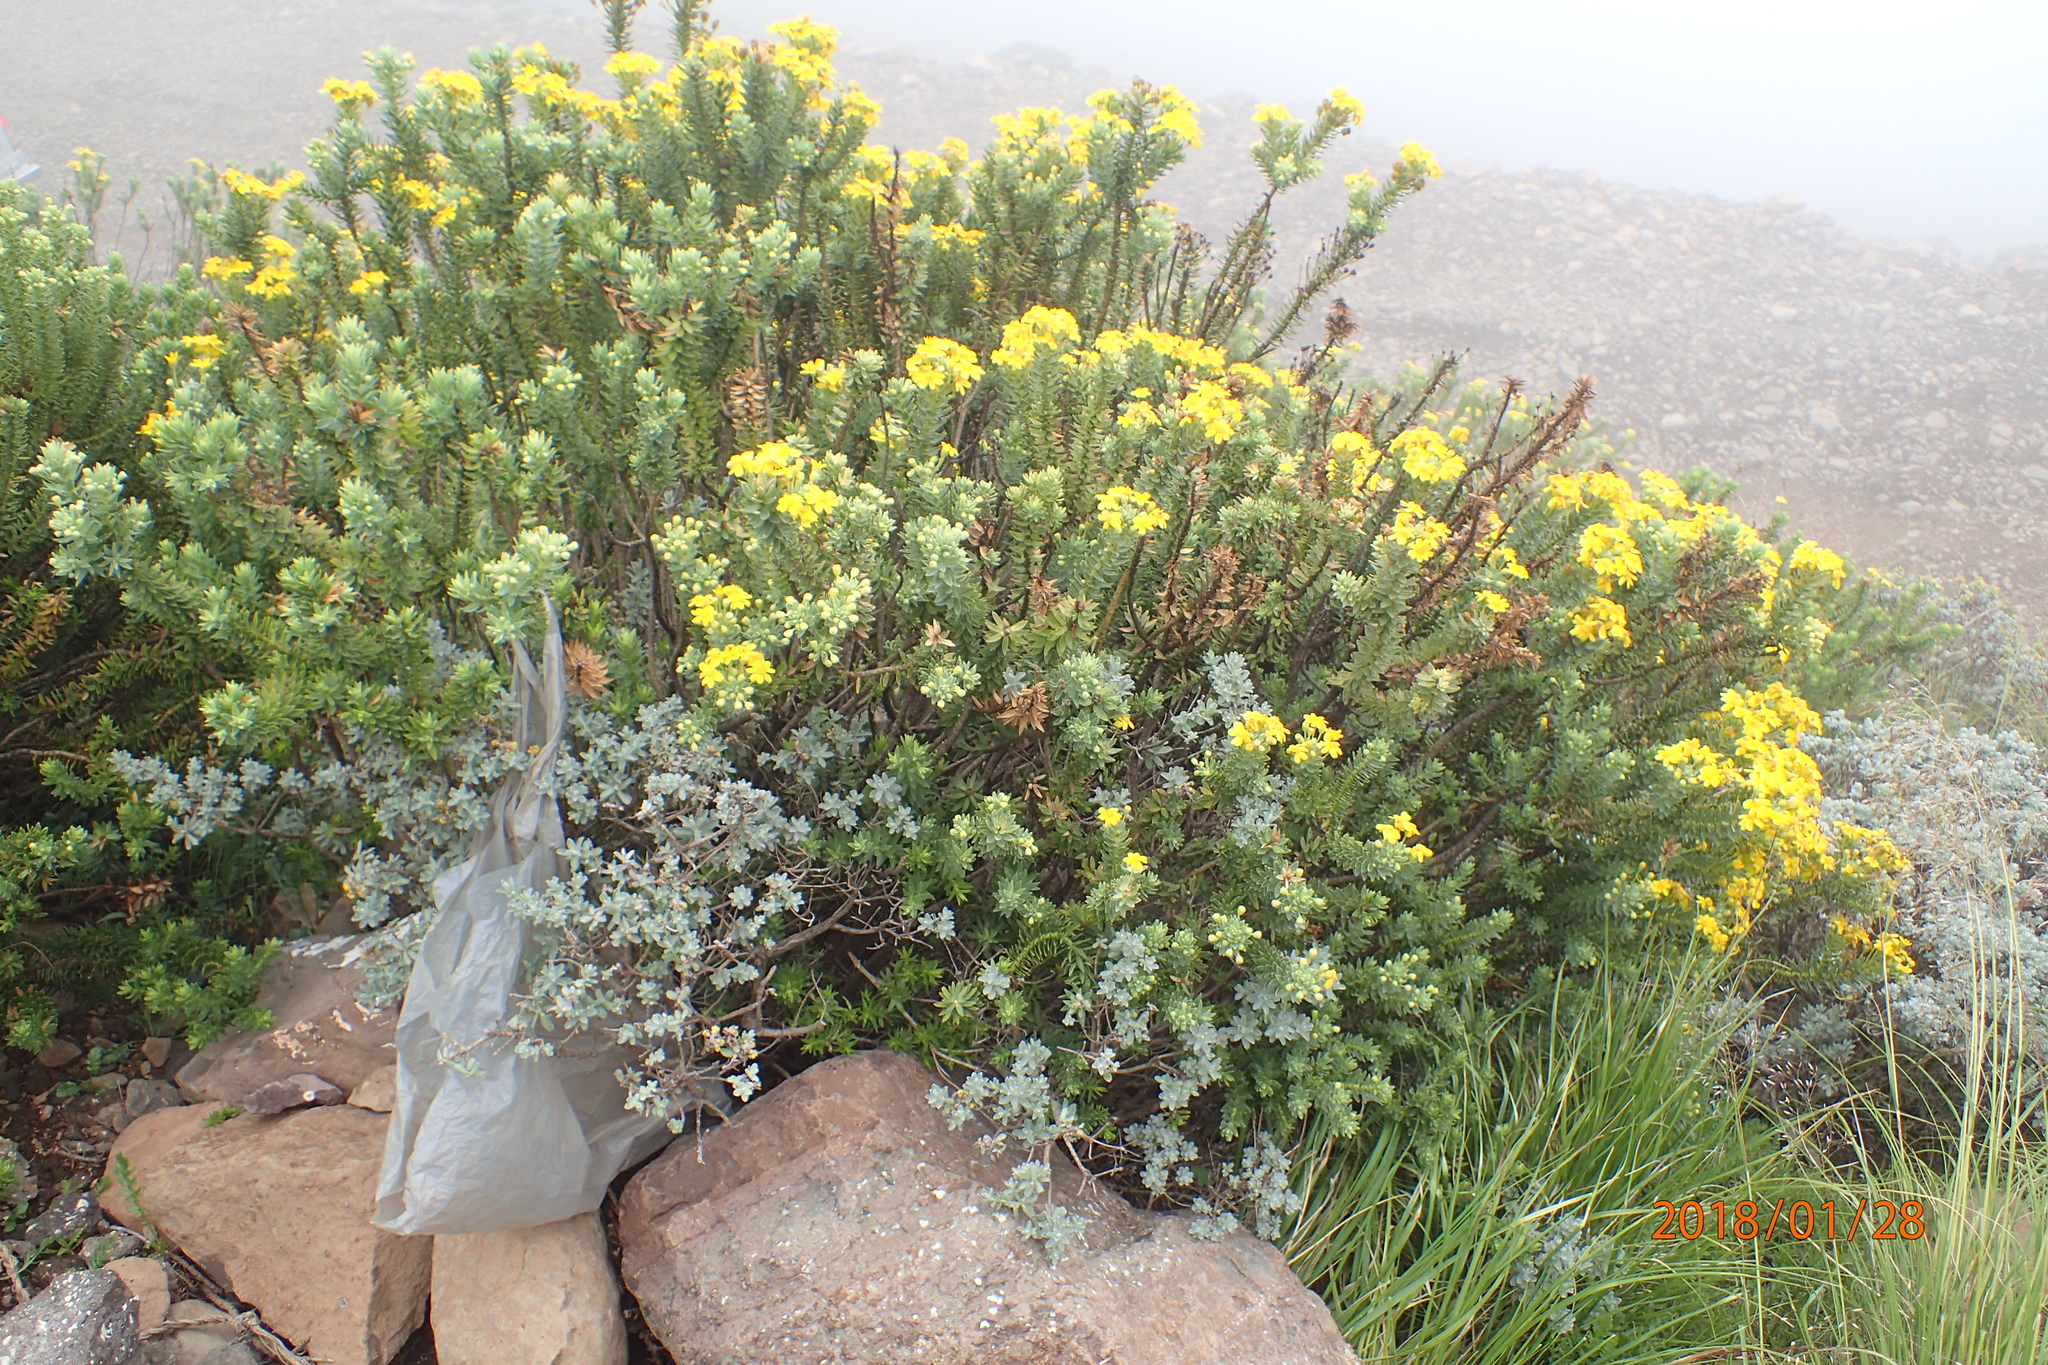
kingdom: Plantae
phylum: Tracheophyta
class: Magnoliopsida
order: Asterales
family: Asteraceae
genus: Euryops
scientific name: Euryops tysonii
